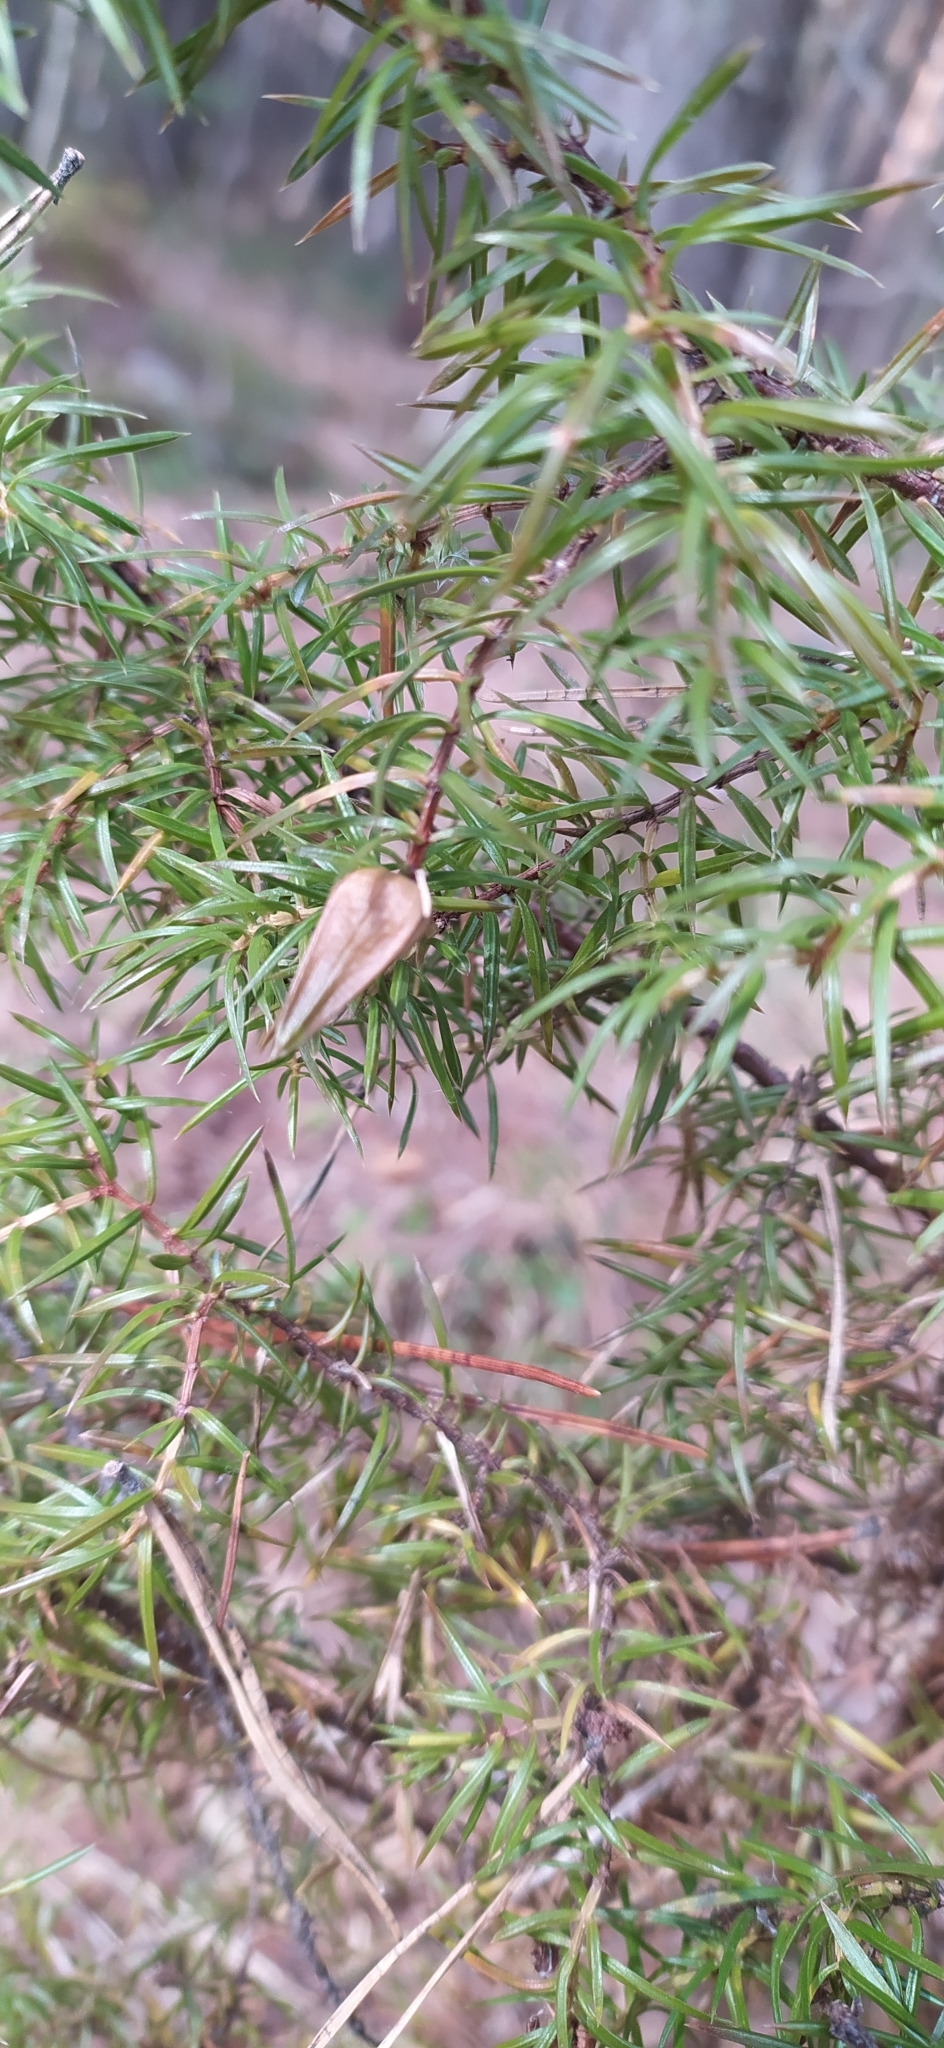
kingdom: Plantae
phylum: Tracheophyta
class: Pinopsida
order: Pinales
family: Cupressaceae
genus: Juniperus
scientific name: Juniperus communis
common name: Common juniper
